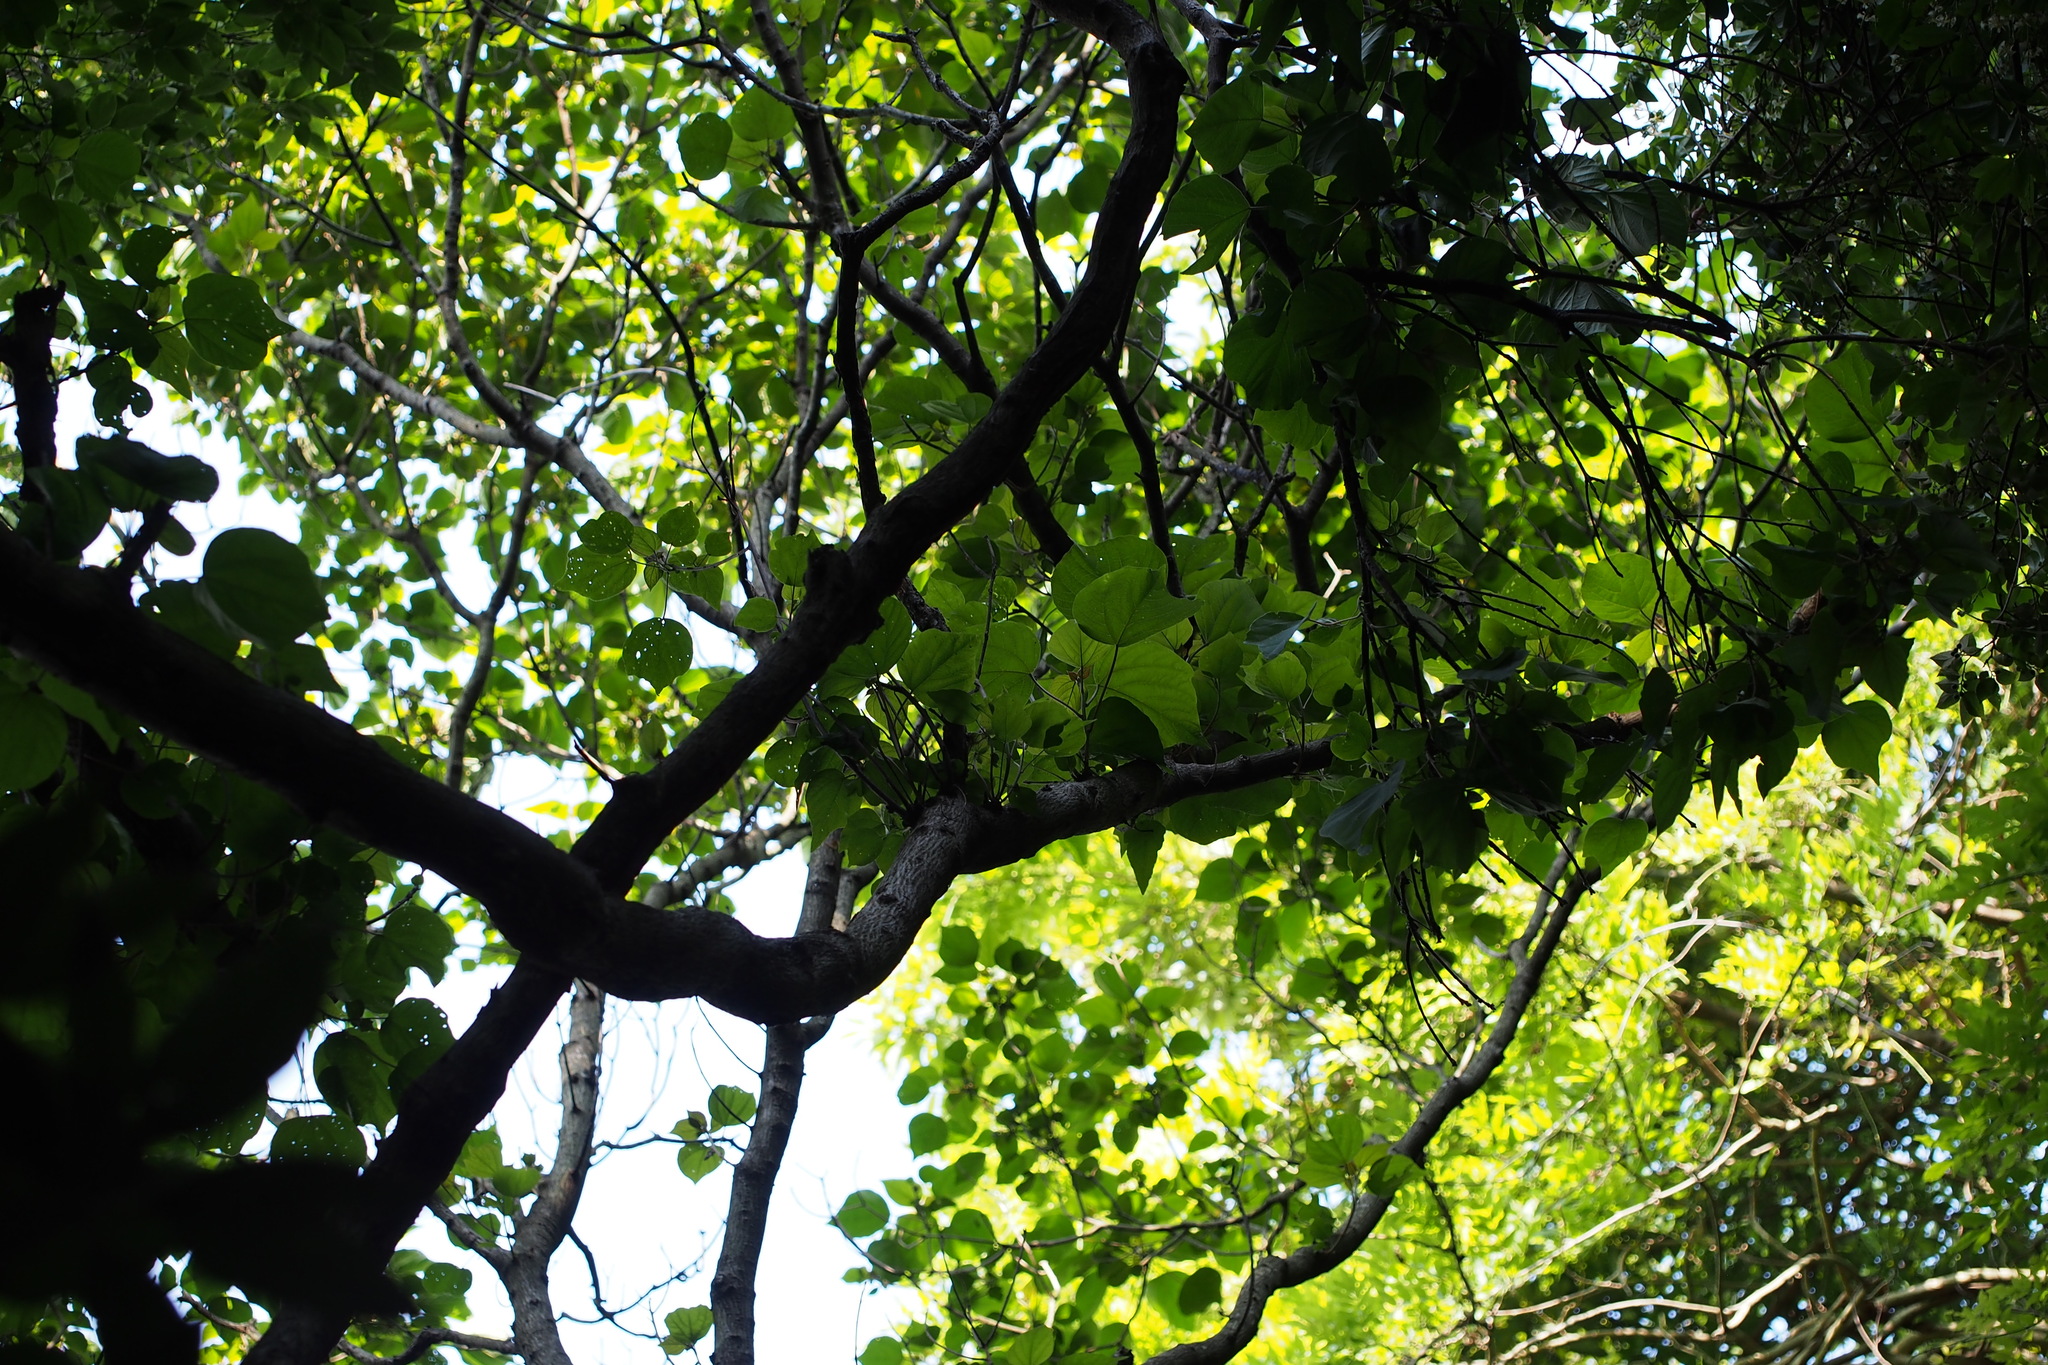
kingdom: Plantae
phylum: Tracheophyta
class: Magnoliopsida
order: Malpighiales
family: Euphorbiaceae
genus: Mallotus
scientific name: Mallotus japonicus
